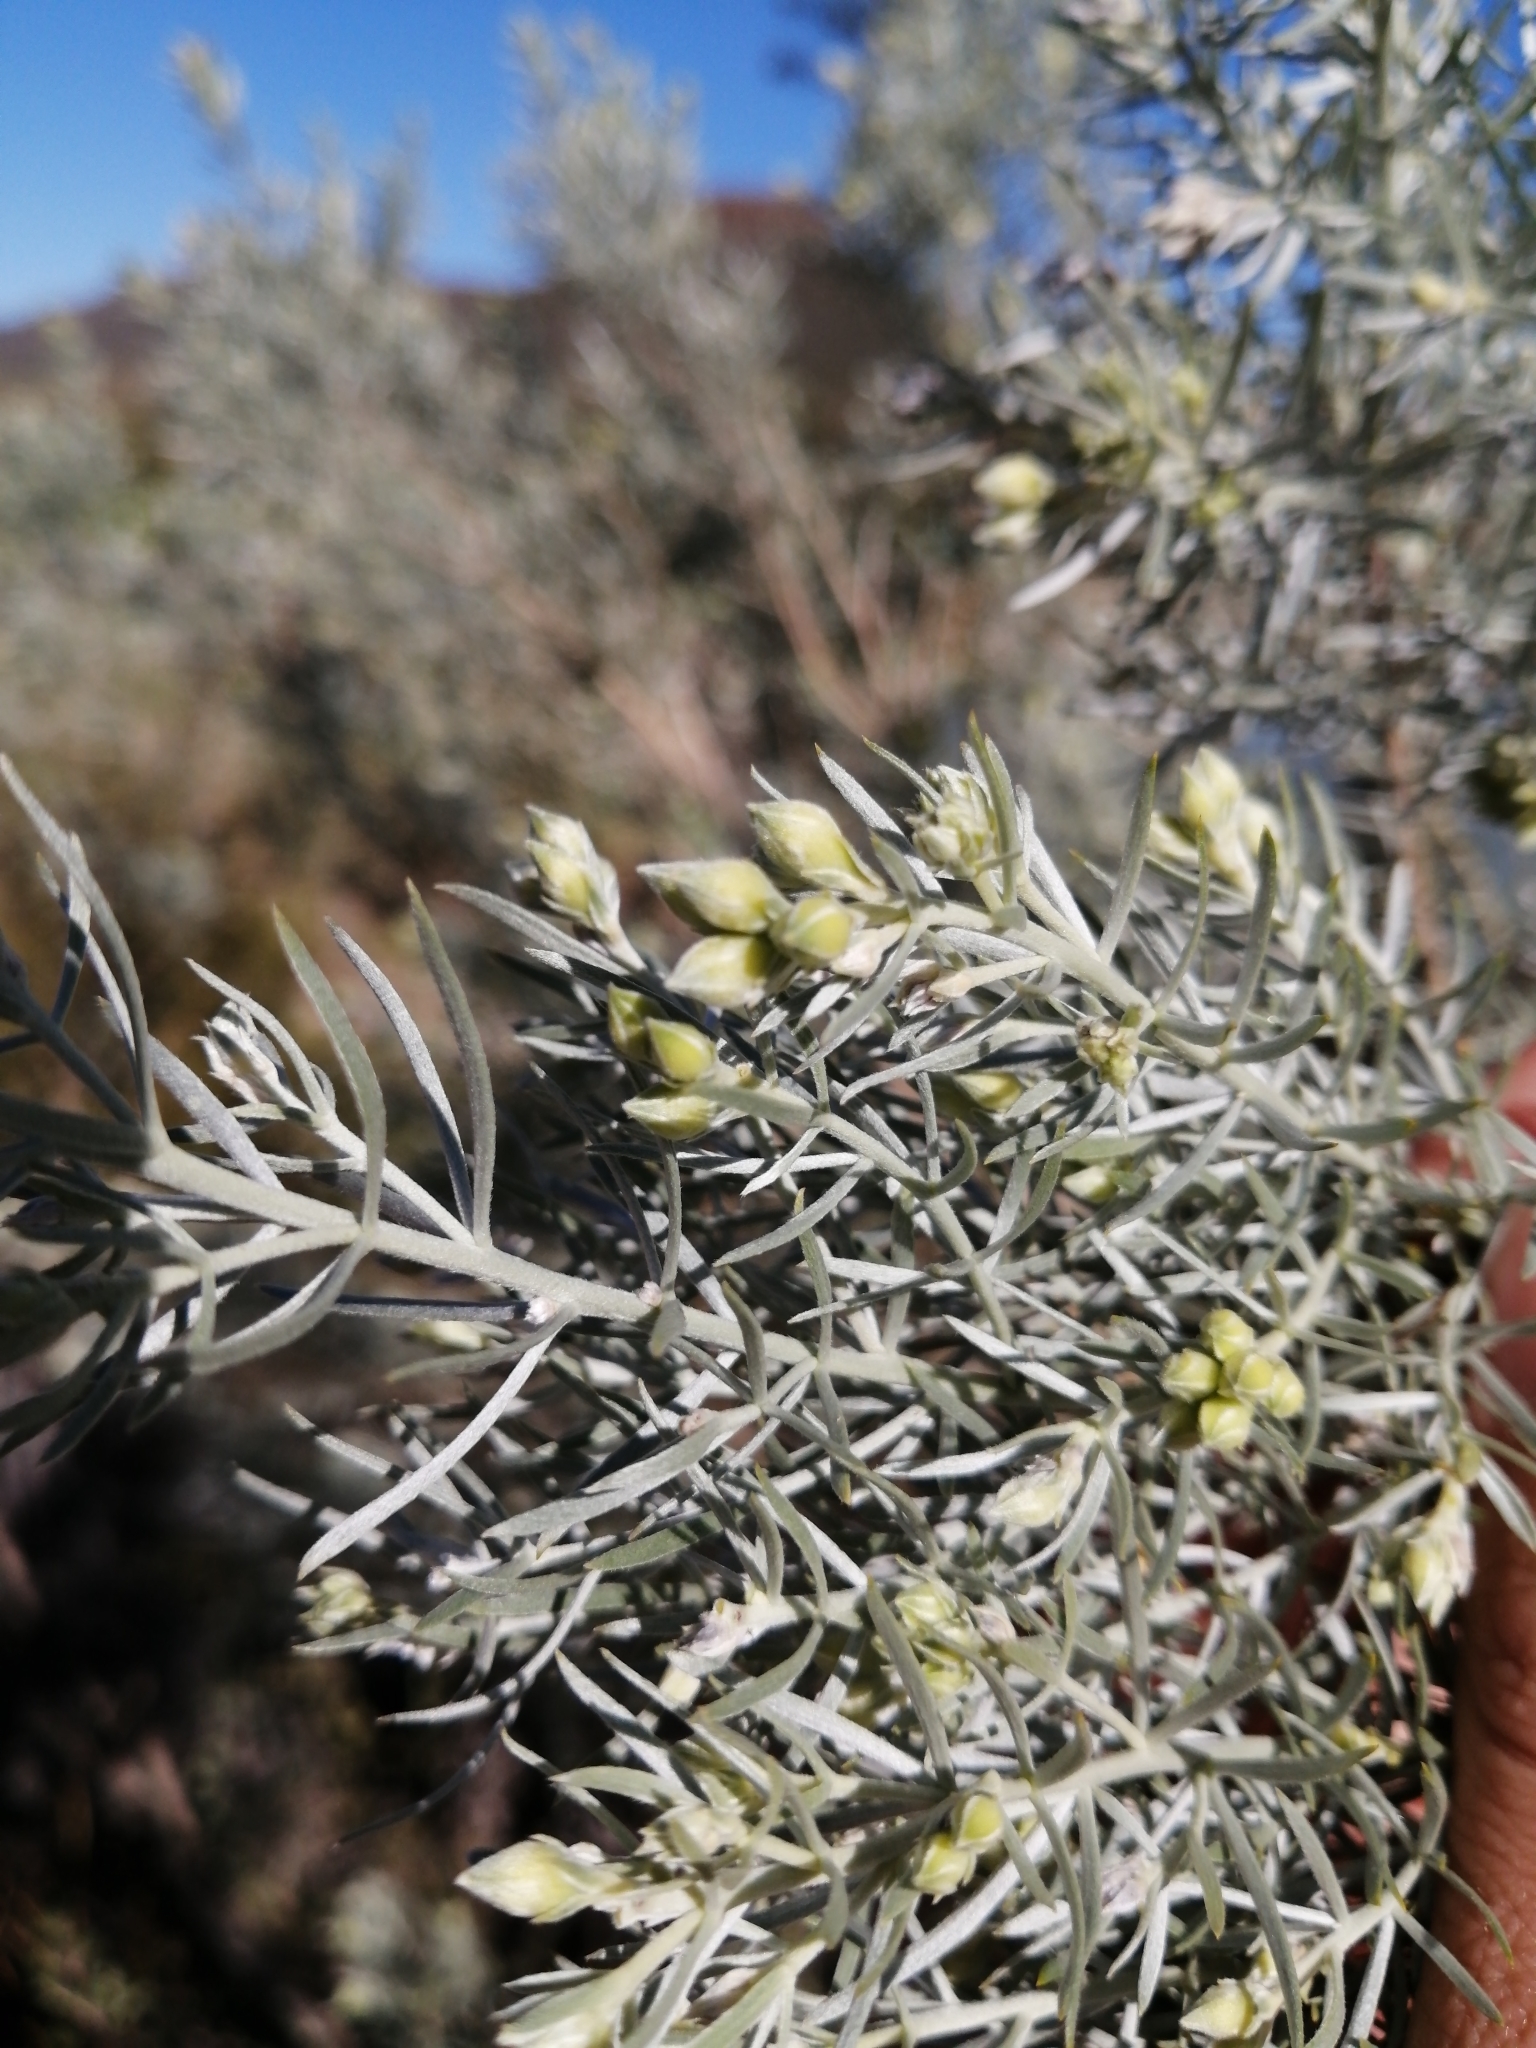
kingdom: Plantae
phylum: Tracheophyta
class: Magnoliopsida
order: Fabales
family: Fabaceae
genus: Aspalathus
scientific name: Aspalathus rugosa
